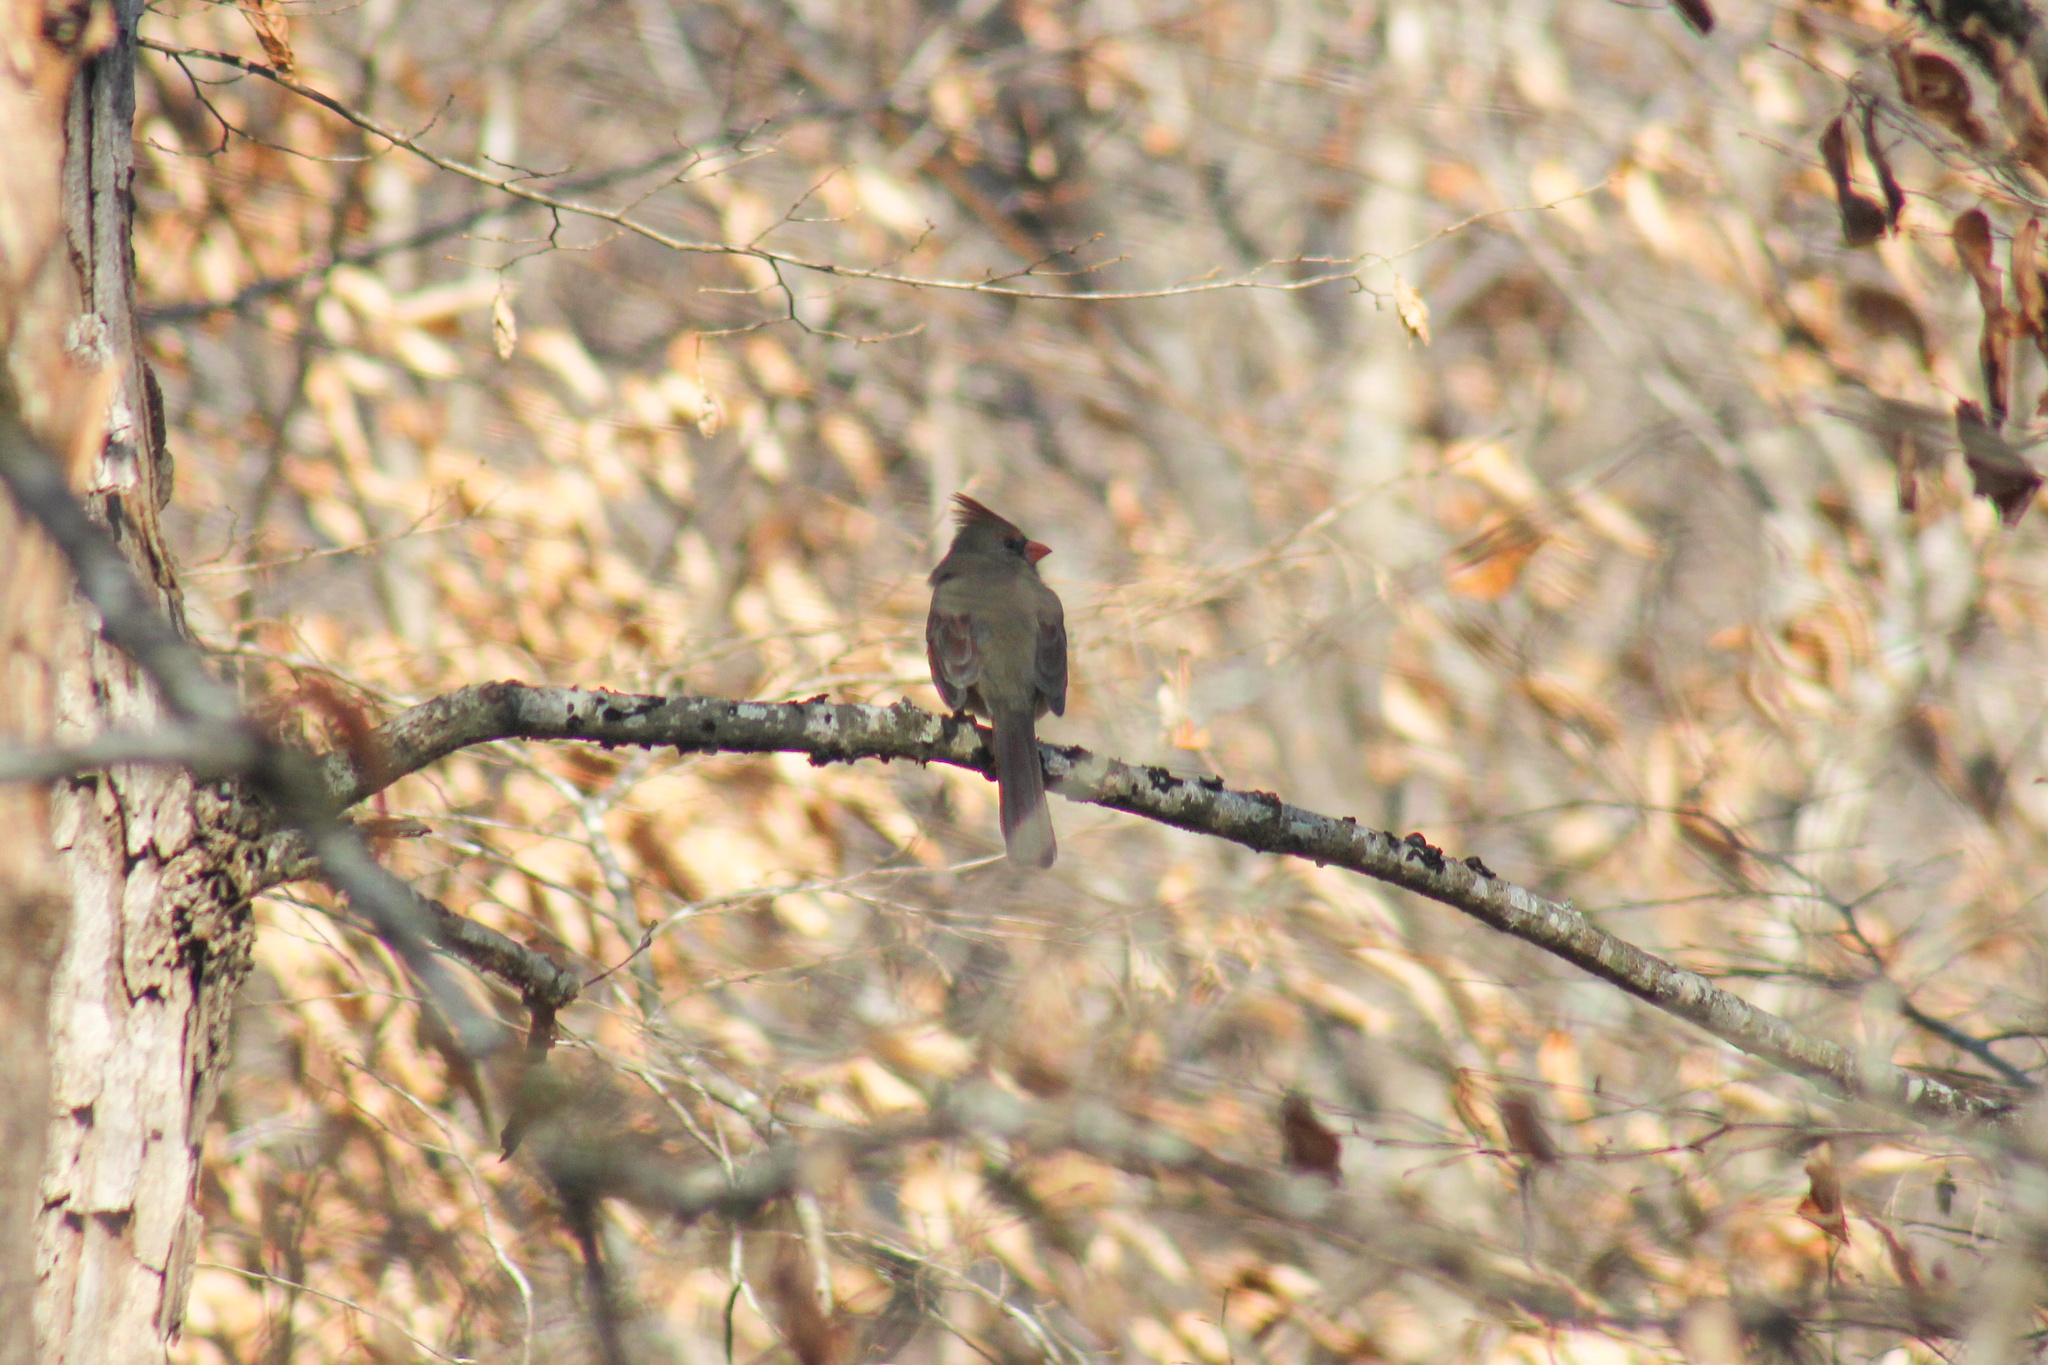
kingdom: Animalia
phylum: Chordata
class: Aves
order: Passeriformes
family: Cardinalidae
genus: Cardinalis
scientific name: Cardinalis cardinalis
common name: Northern cardinal
